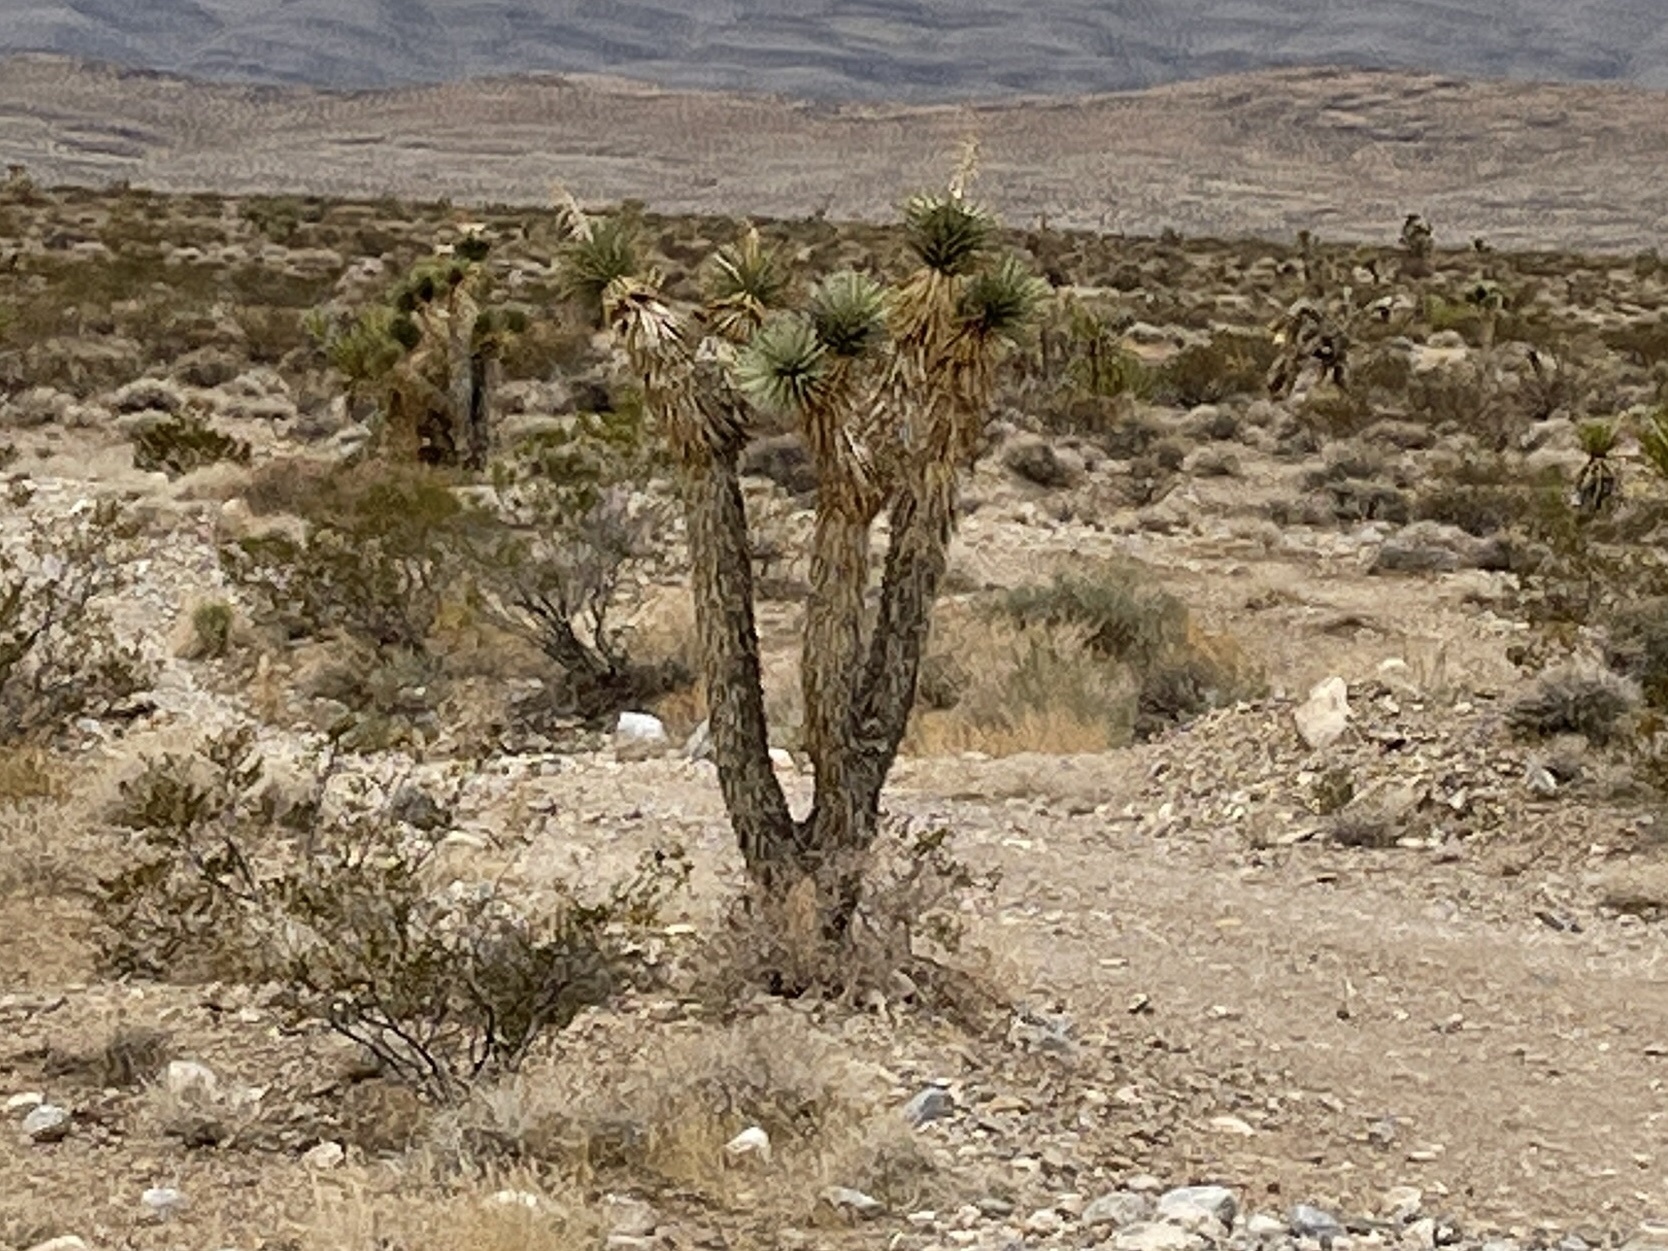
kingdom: Plantae
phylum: Tracheophyta
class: Liliopsida
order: Asparagales
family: Asparagaceae
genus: Yucca
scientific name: Yucca brevifolia
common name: Joshua tree
